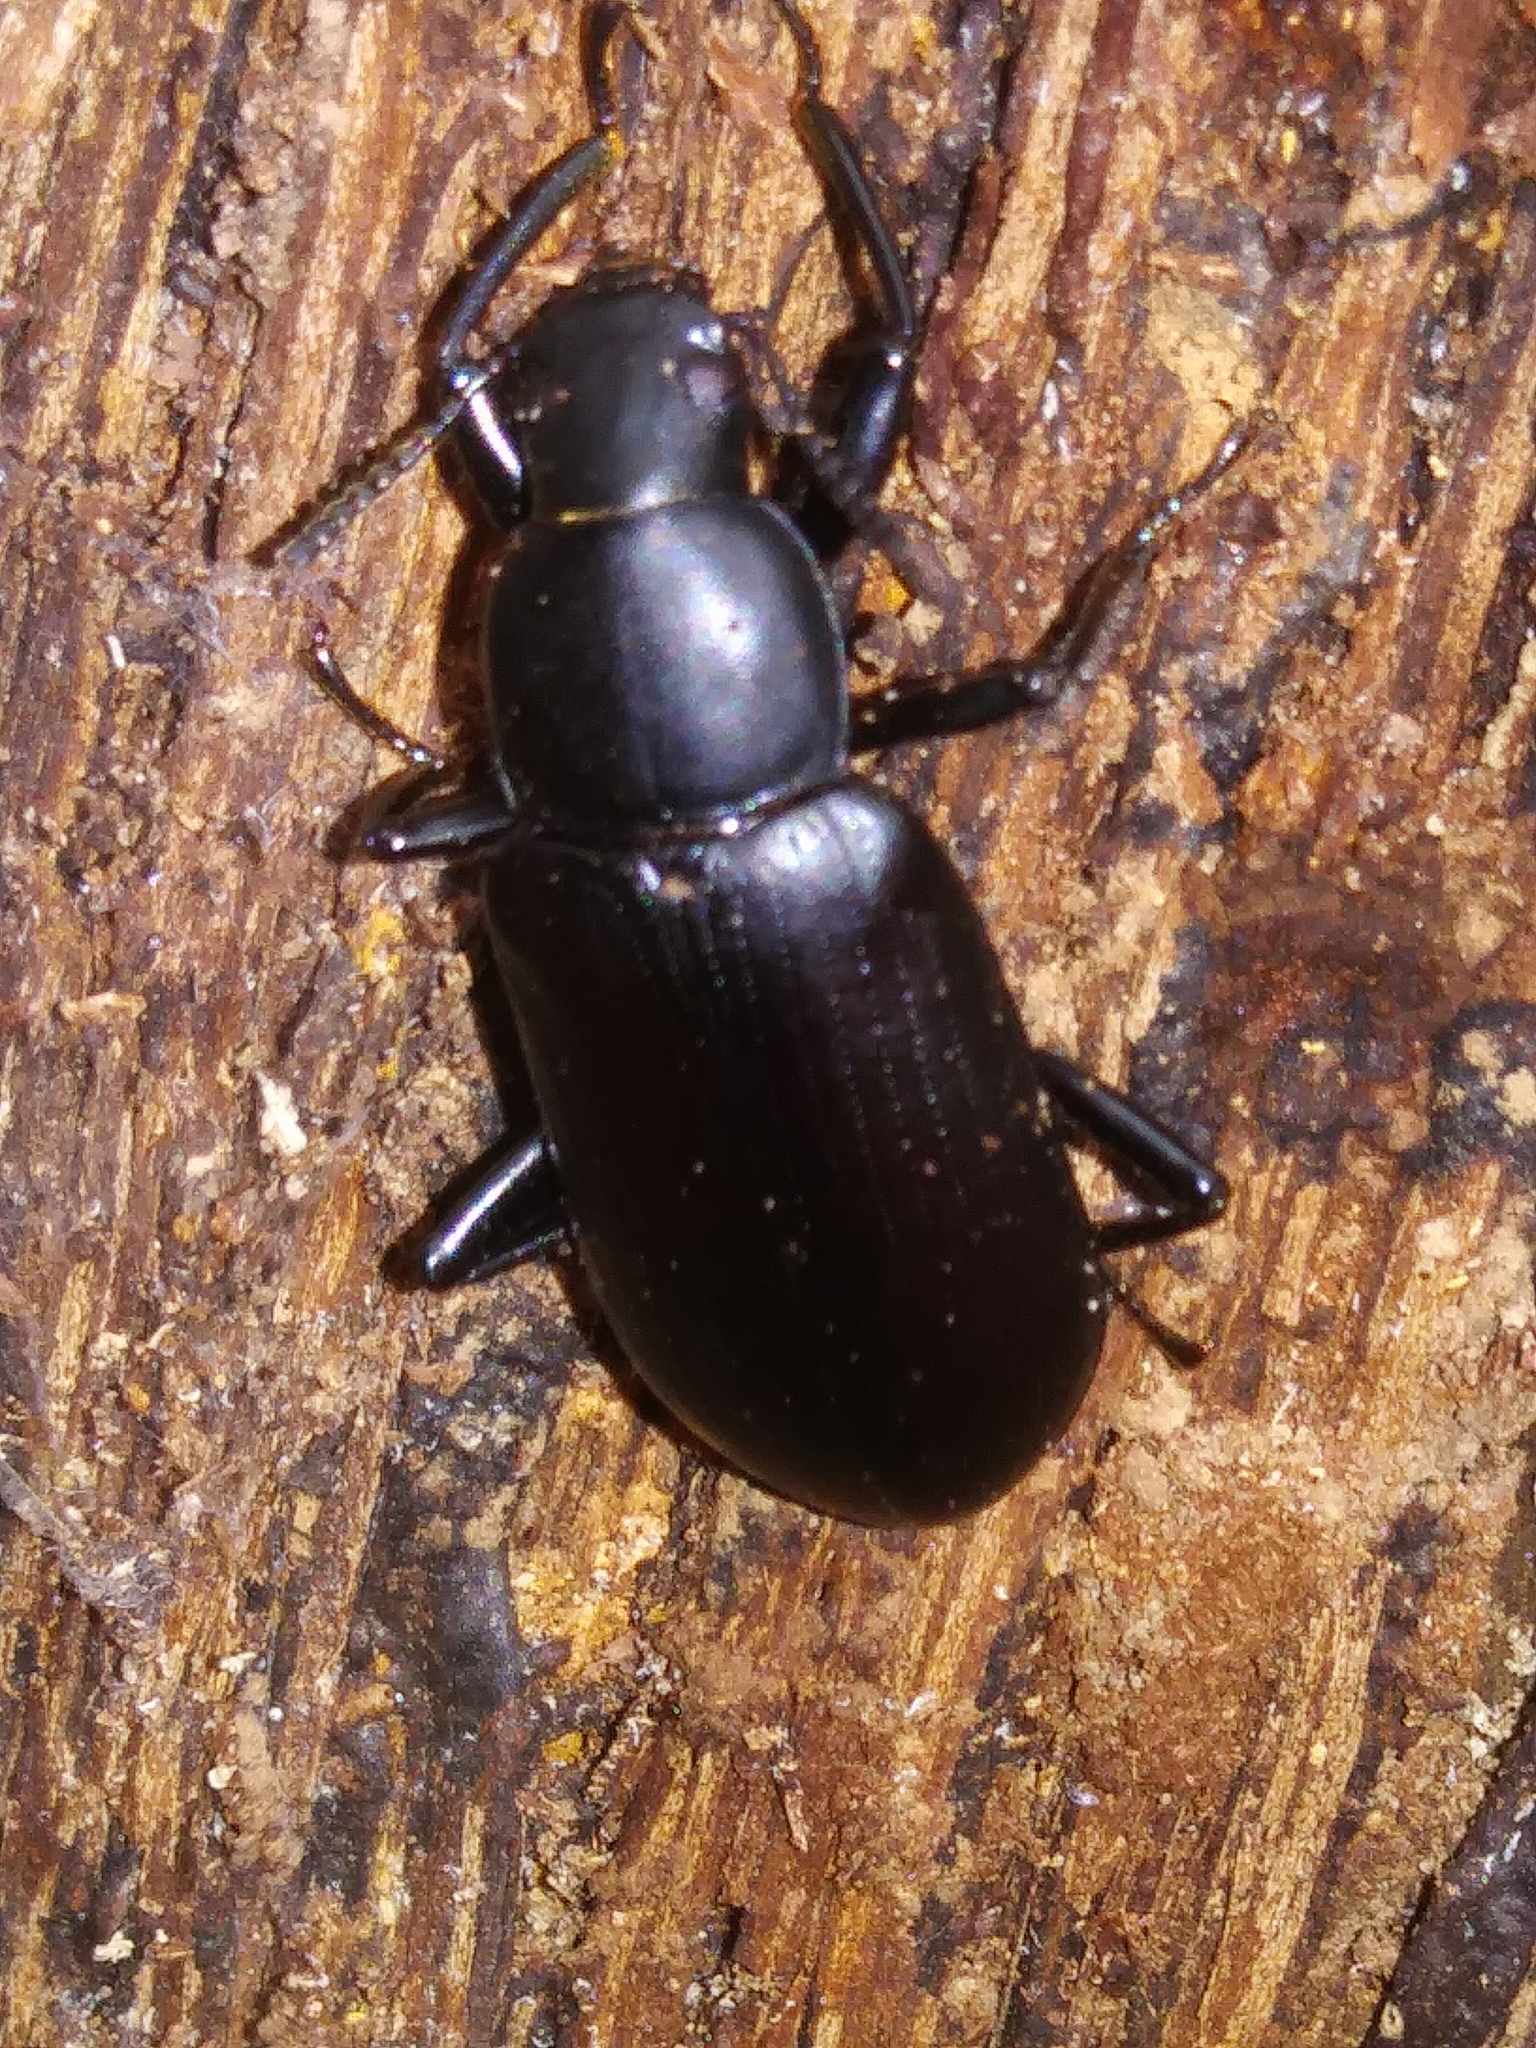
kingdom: Animalia
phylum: Arthropoda
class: Insecta
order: Coleoptera
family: Tenebrionidae
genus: Alobates
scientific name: Alobates
